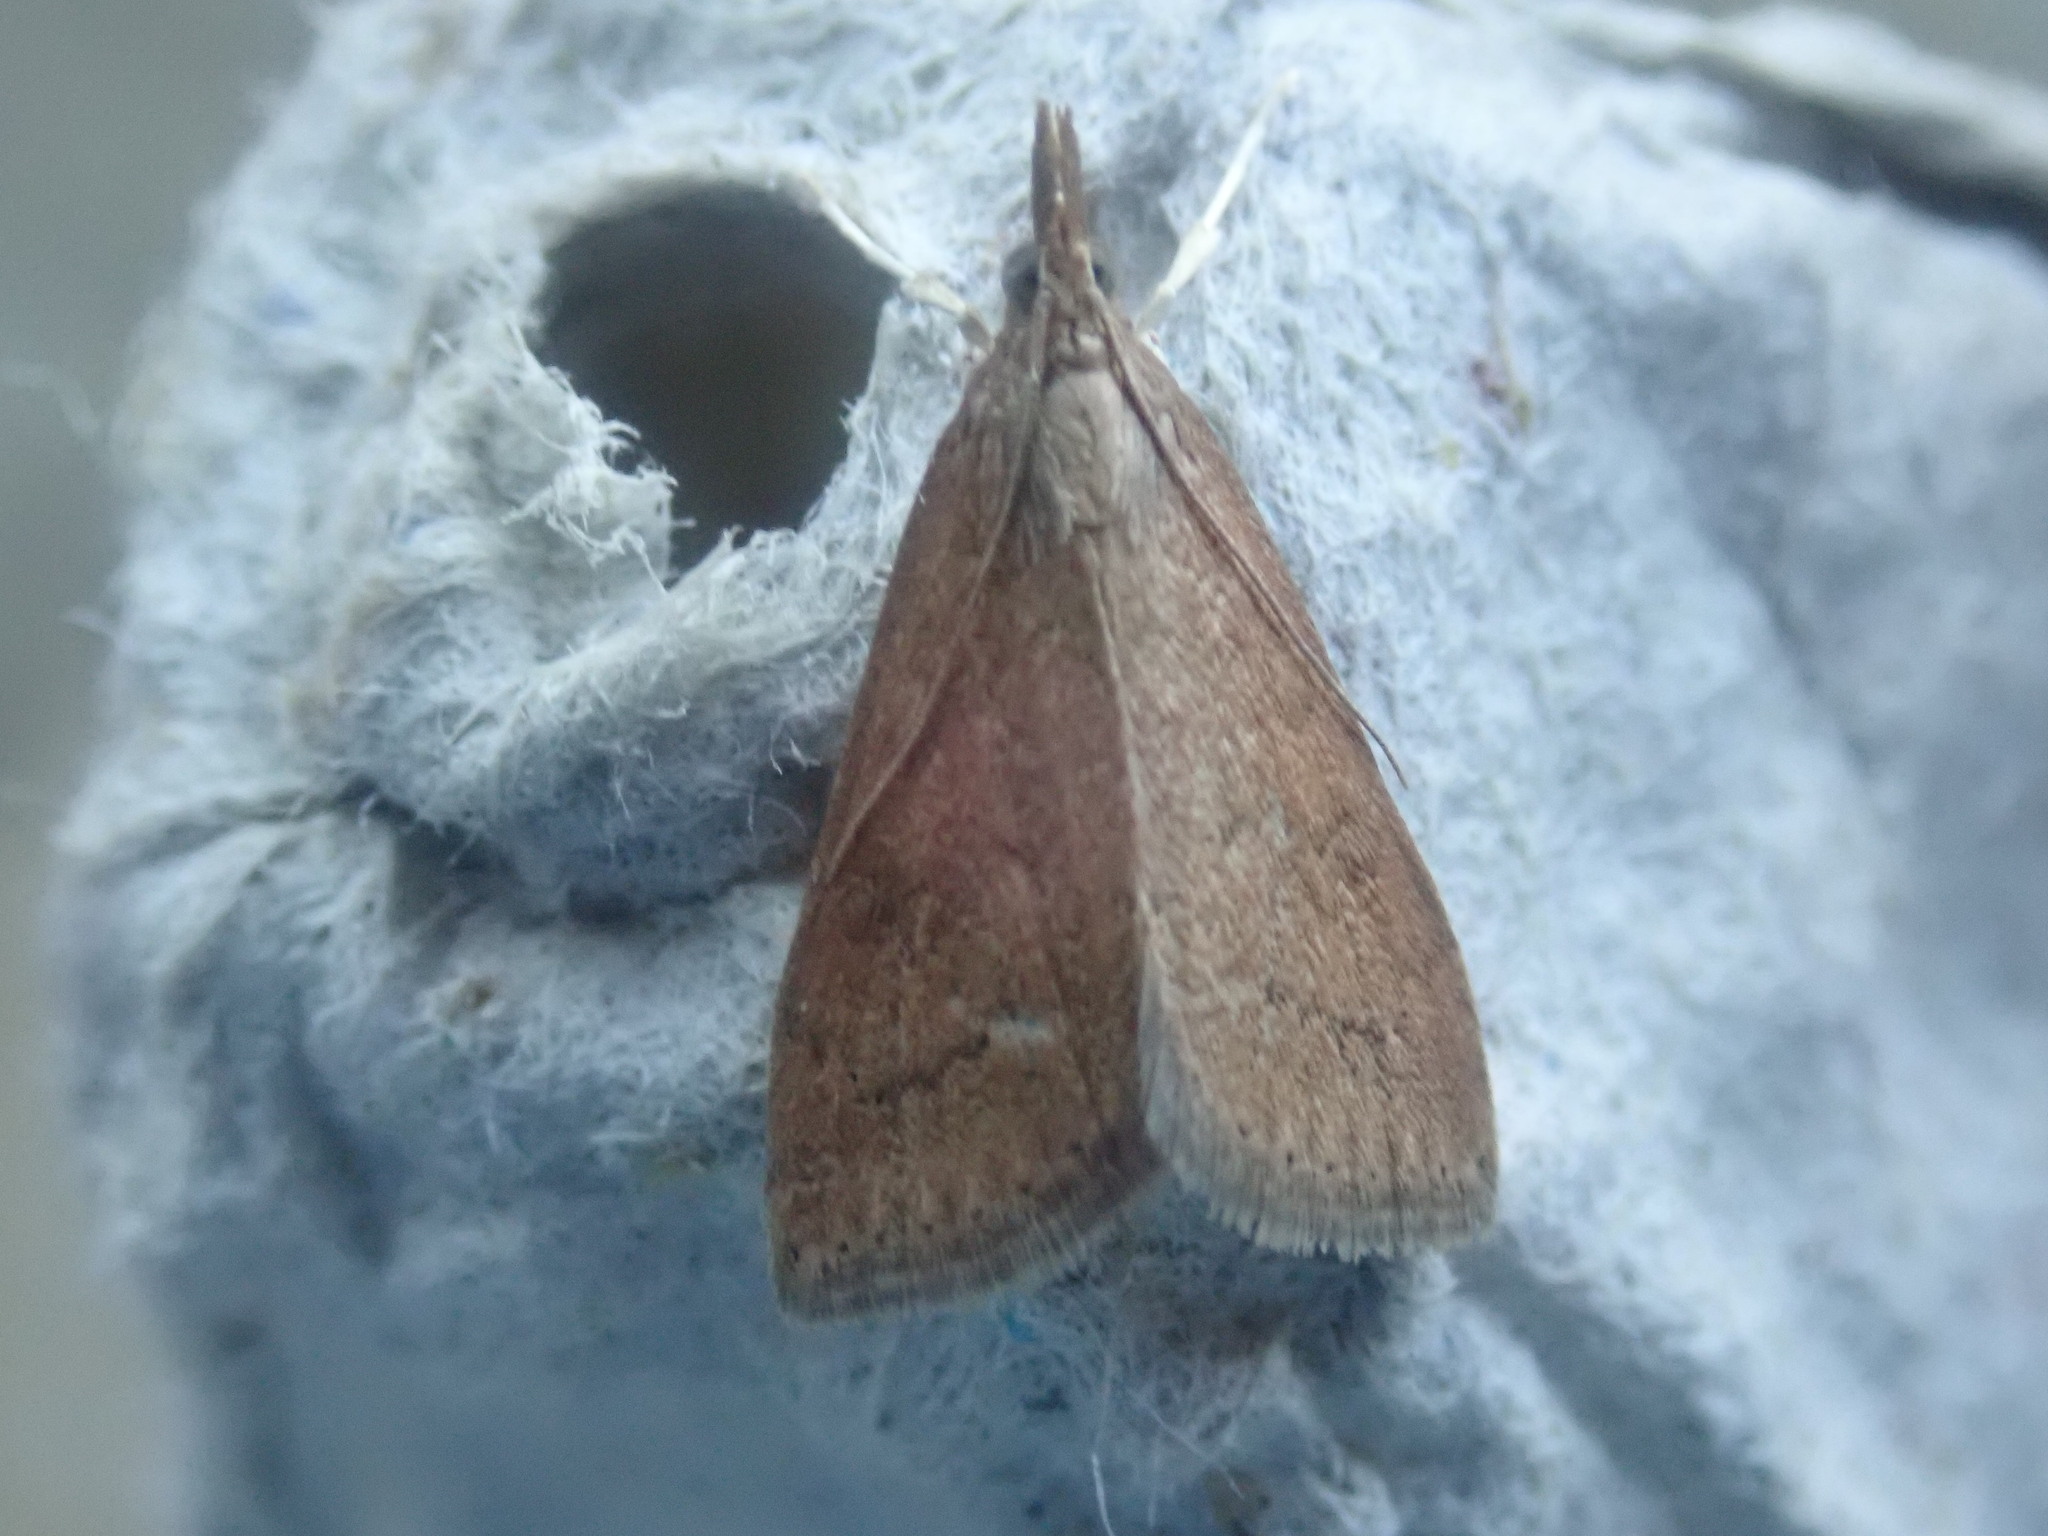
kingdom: Animalia
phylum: Arthropoda
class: Insecta
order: Lepidoptera
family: Crambidae
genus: Udea
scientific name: Udea rubigalis
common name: Celery leaftier moth
